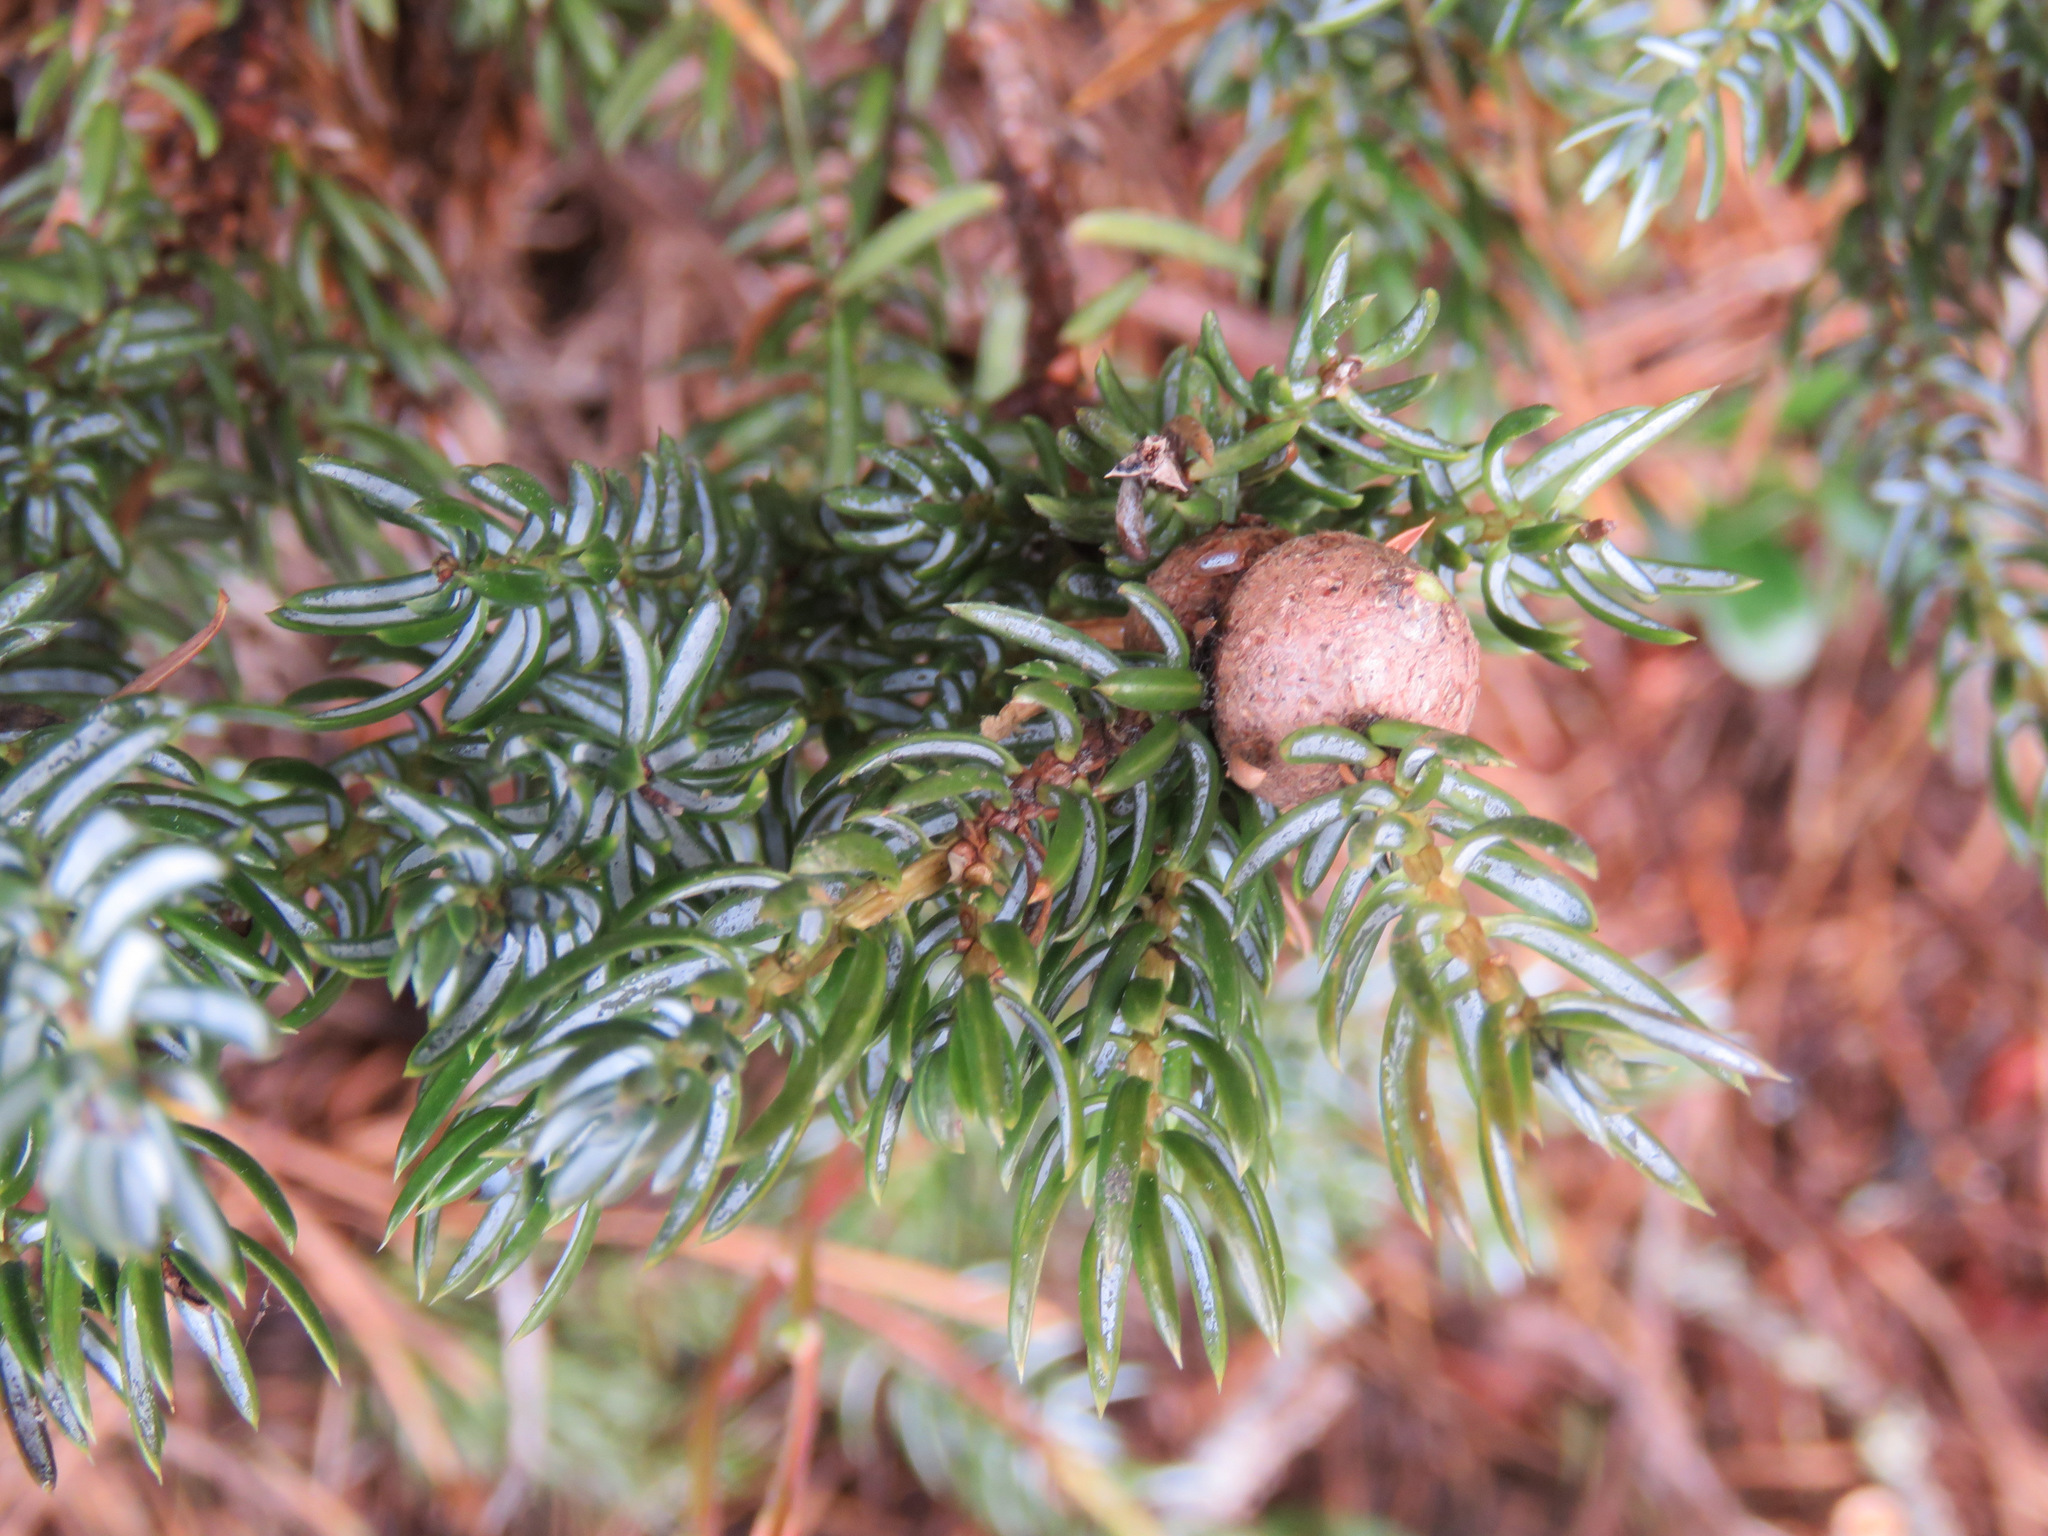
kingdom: Plantae
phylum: Tracheophyta
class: Pinopsida
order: Pinales
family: Cupressaceae
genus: Juniperus
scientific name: Juniperus communis
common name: Common juniper
